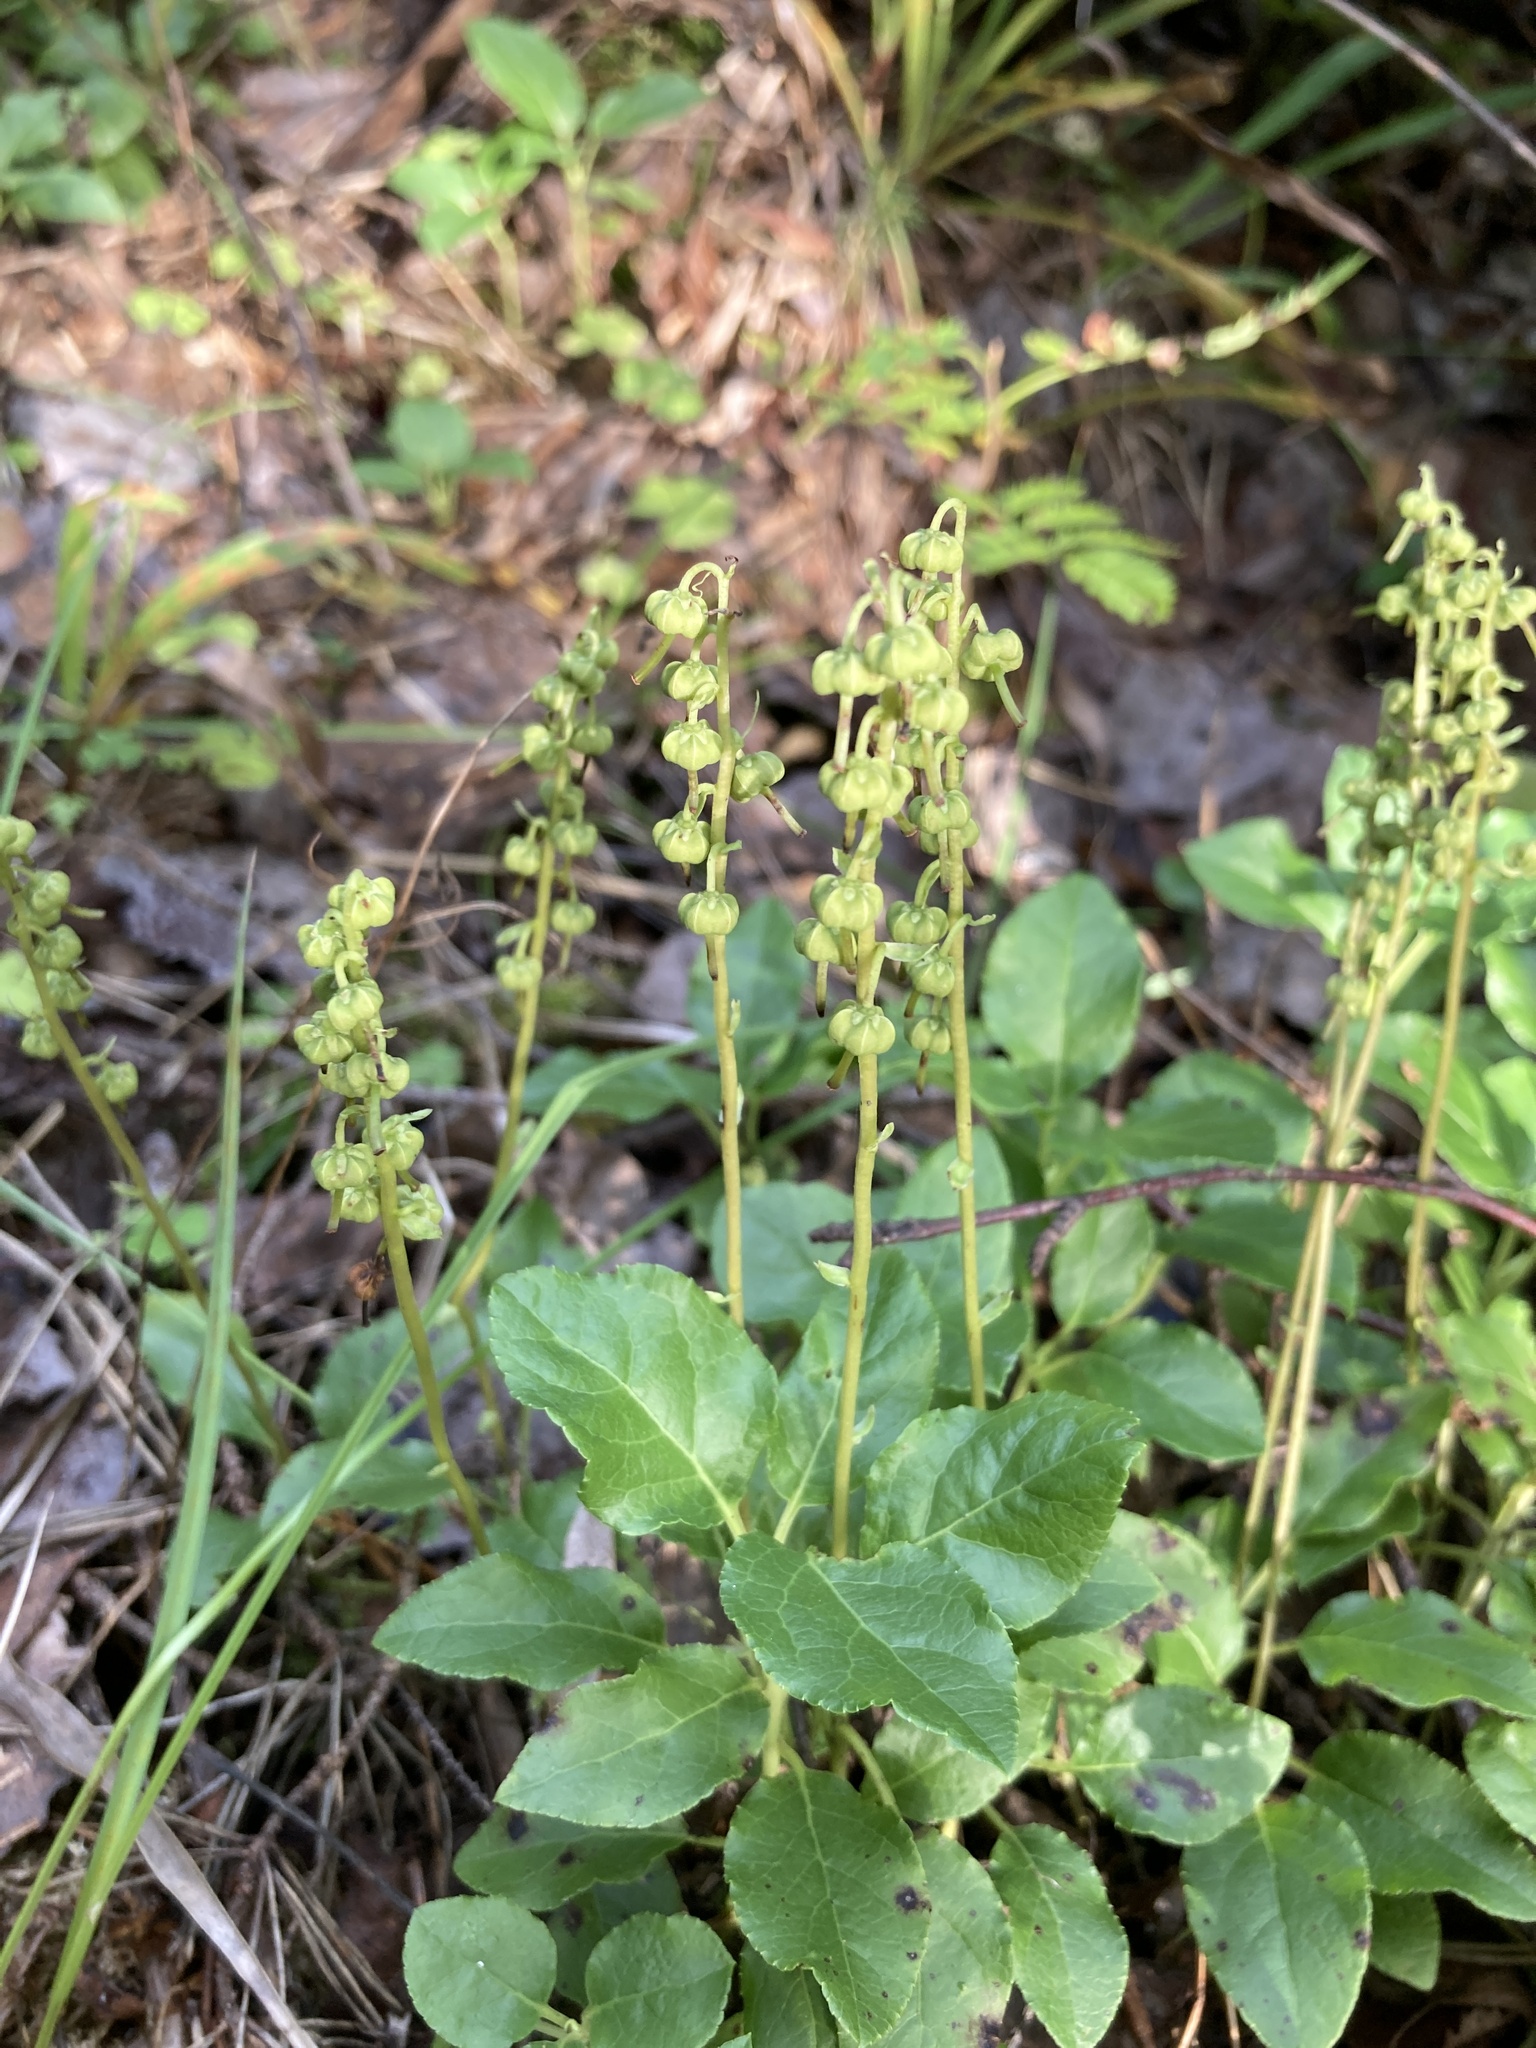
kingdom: Plantae
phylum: Tracheophyta
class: Magnoliopsida
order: Ericales
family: Ericaceae
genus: Orthilia
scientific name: Orthilia secunda
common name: One-sided orthilia
